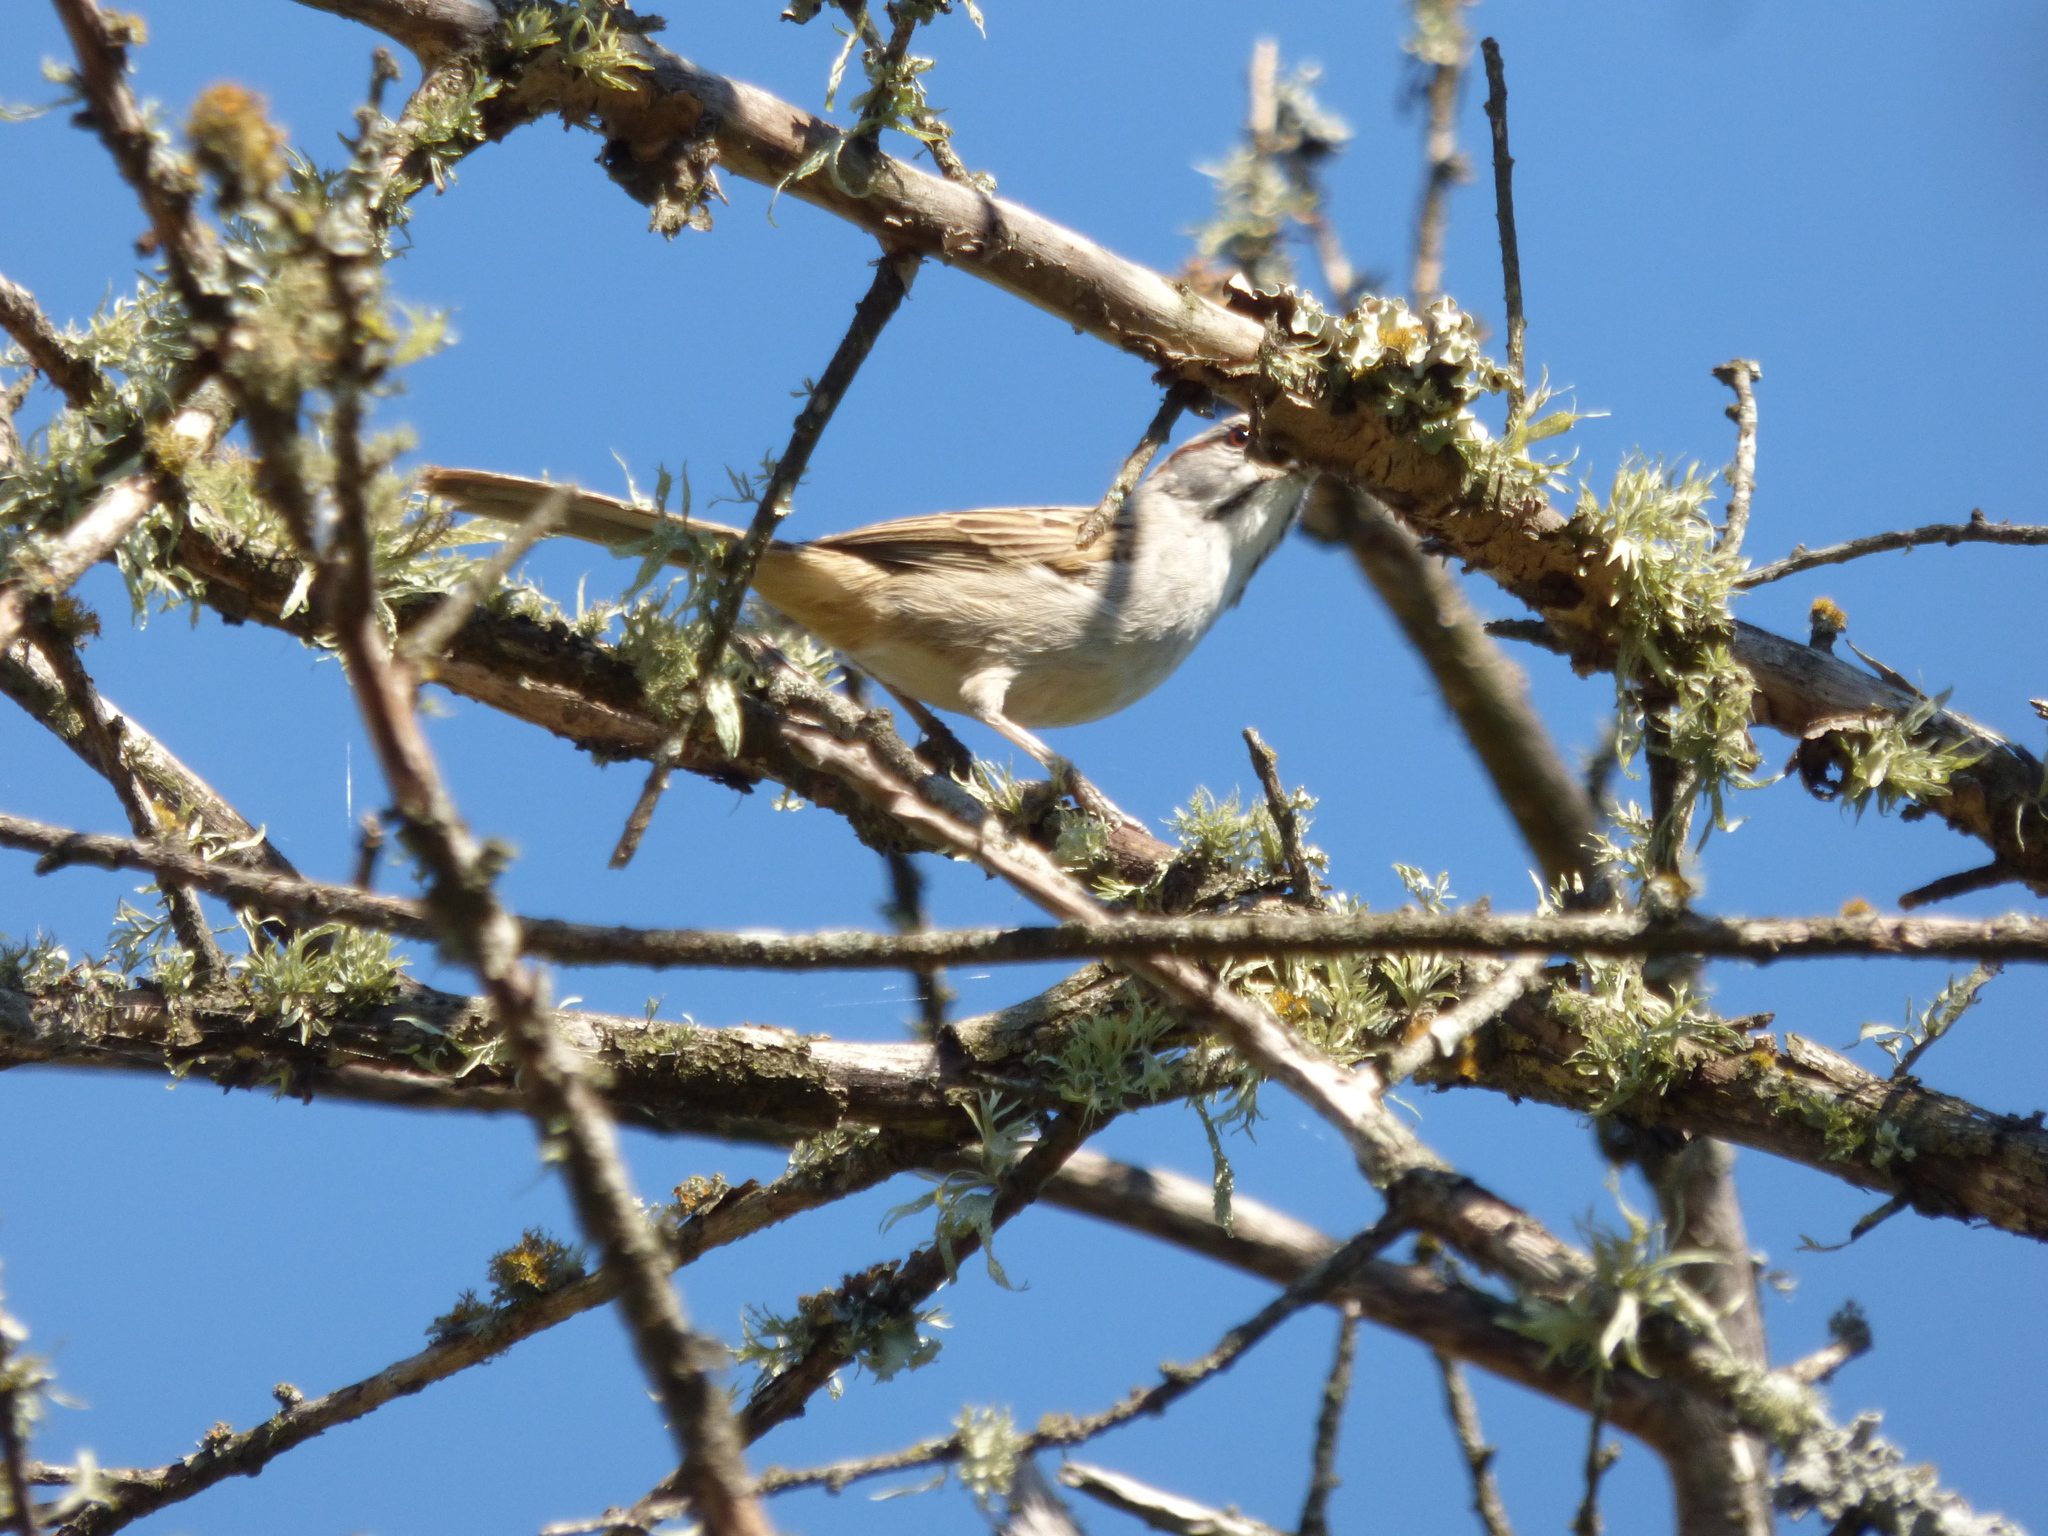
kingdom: Animalia
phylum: Chordata
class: Aves
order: Passeriformes
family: Passerellidae
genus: Rhynchospiza
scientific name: Rhynchospiza strigiceps
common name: Stripe-capped sparrow
